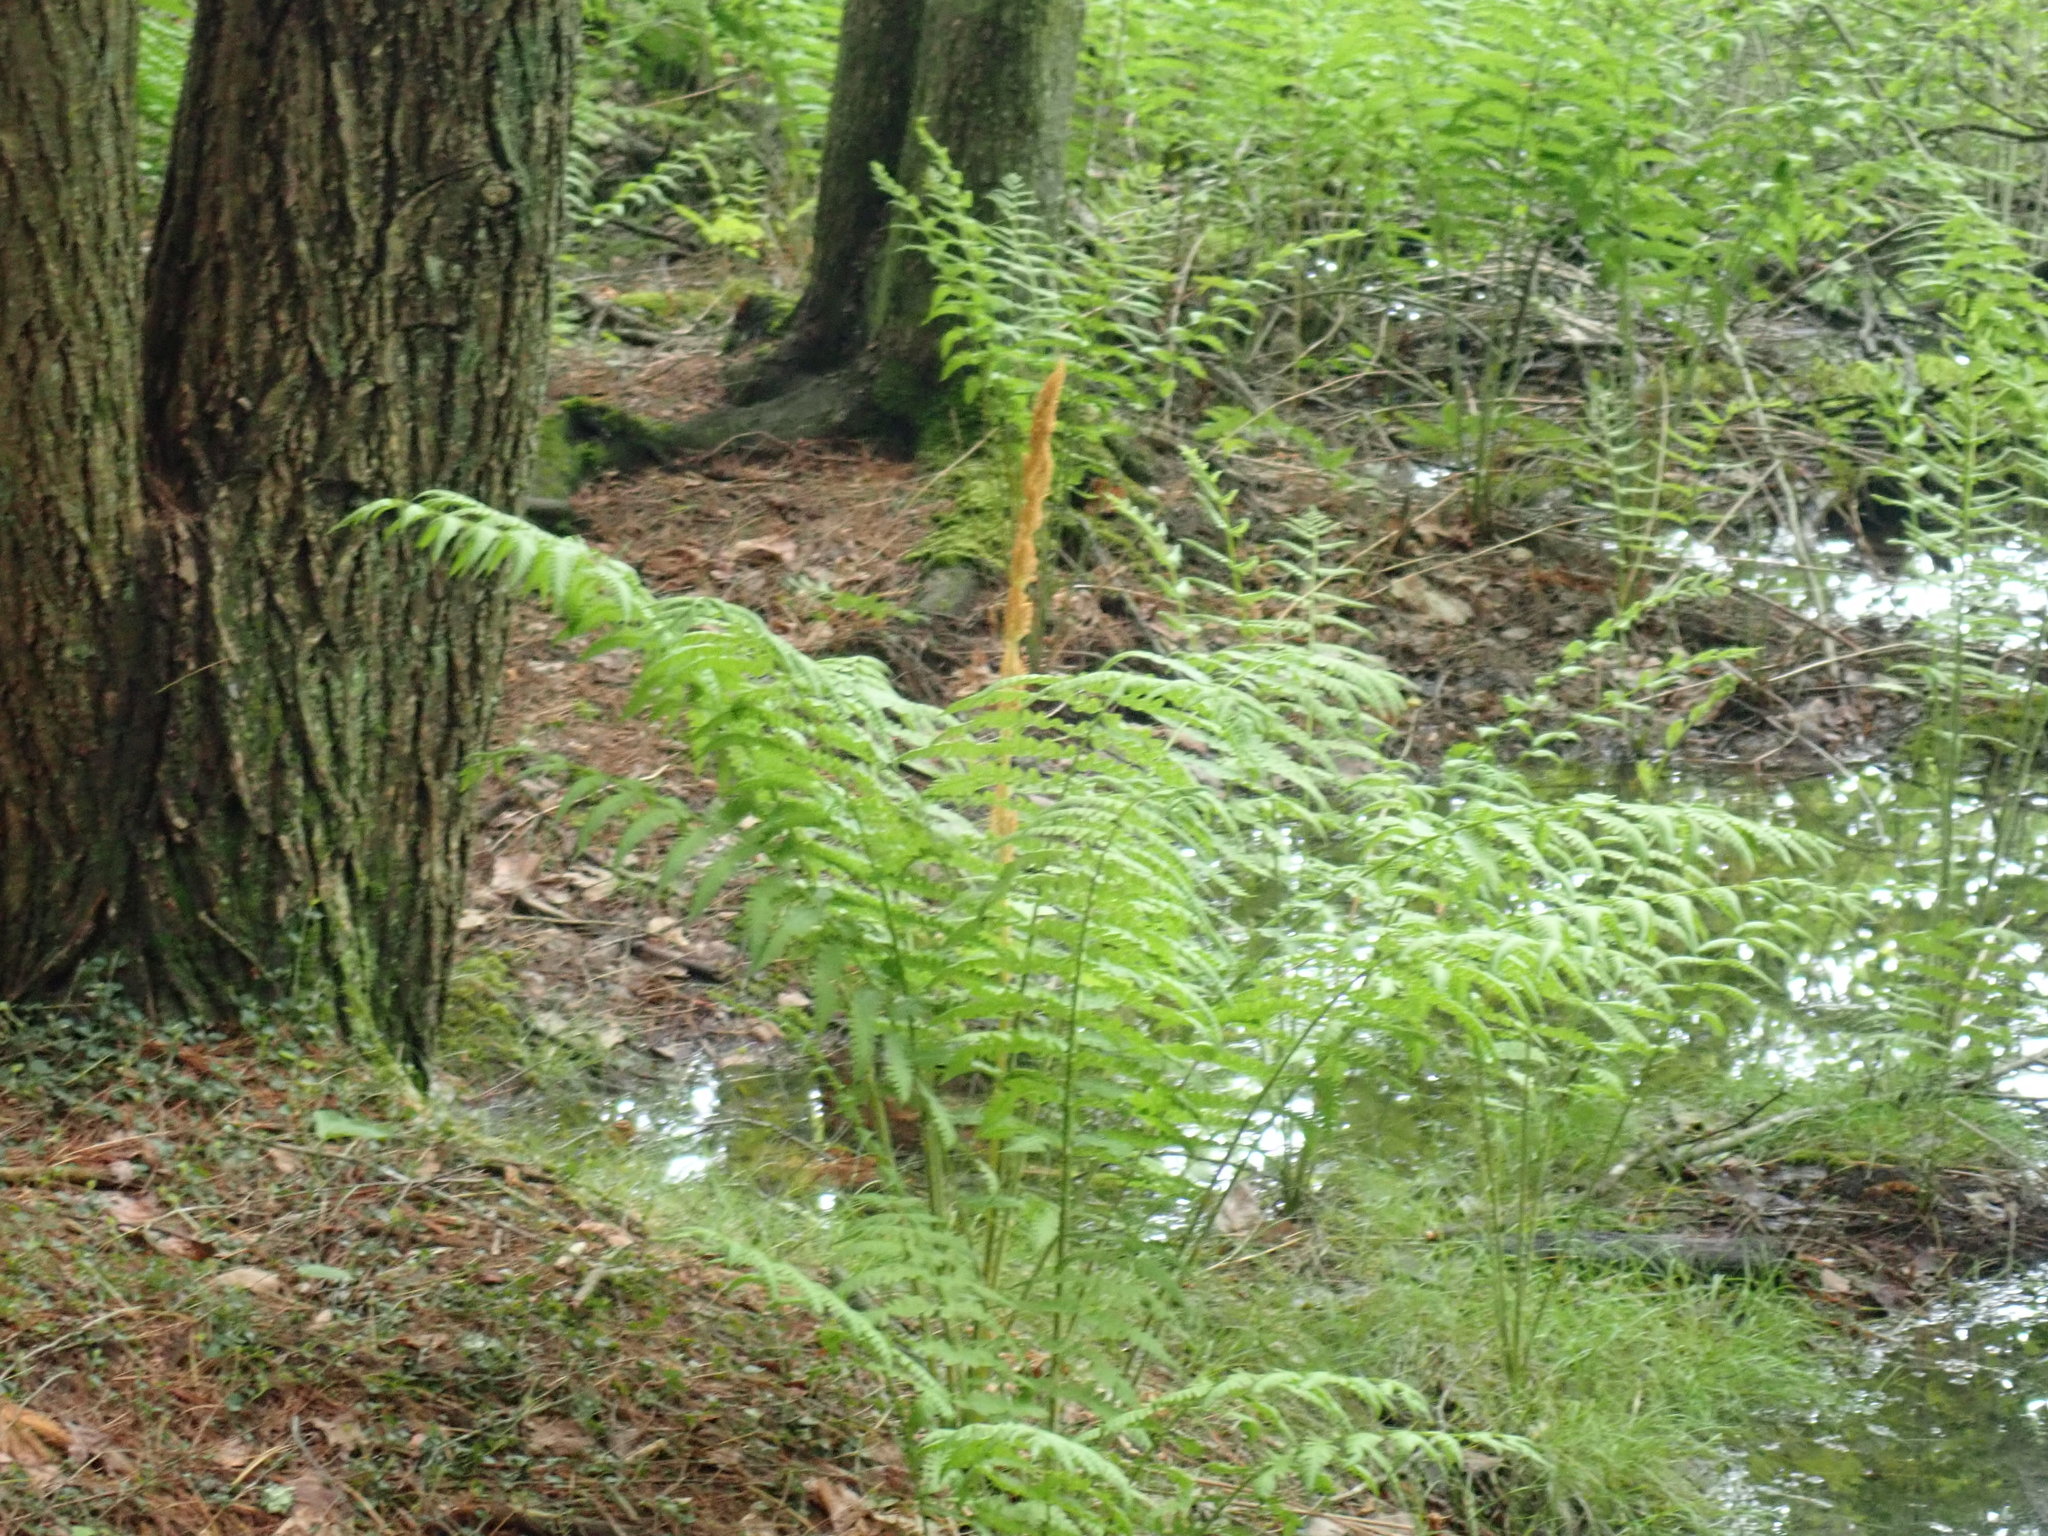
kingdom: Plantae
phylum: Tracheophyta
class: Polypodiopsida
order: Osmundales
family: Osmundaceae
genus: Osmundastrum
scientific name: Osmundastrum cinnamomeum
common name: Cinnamon fern
